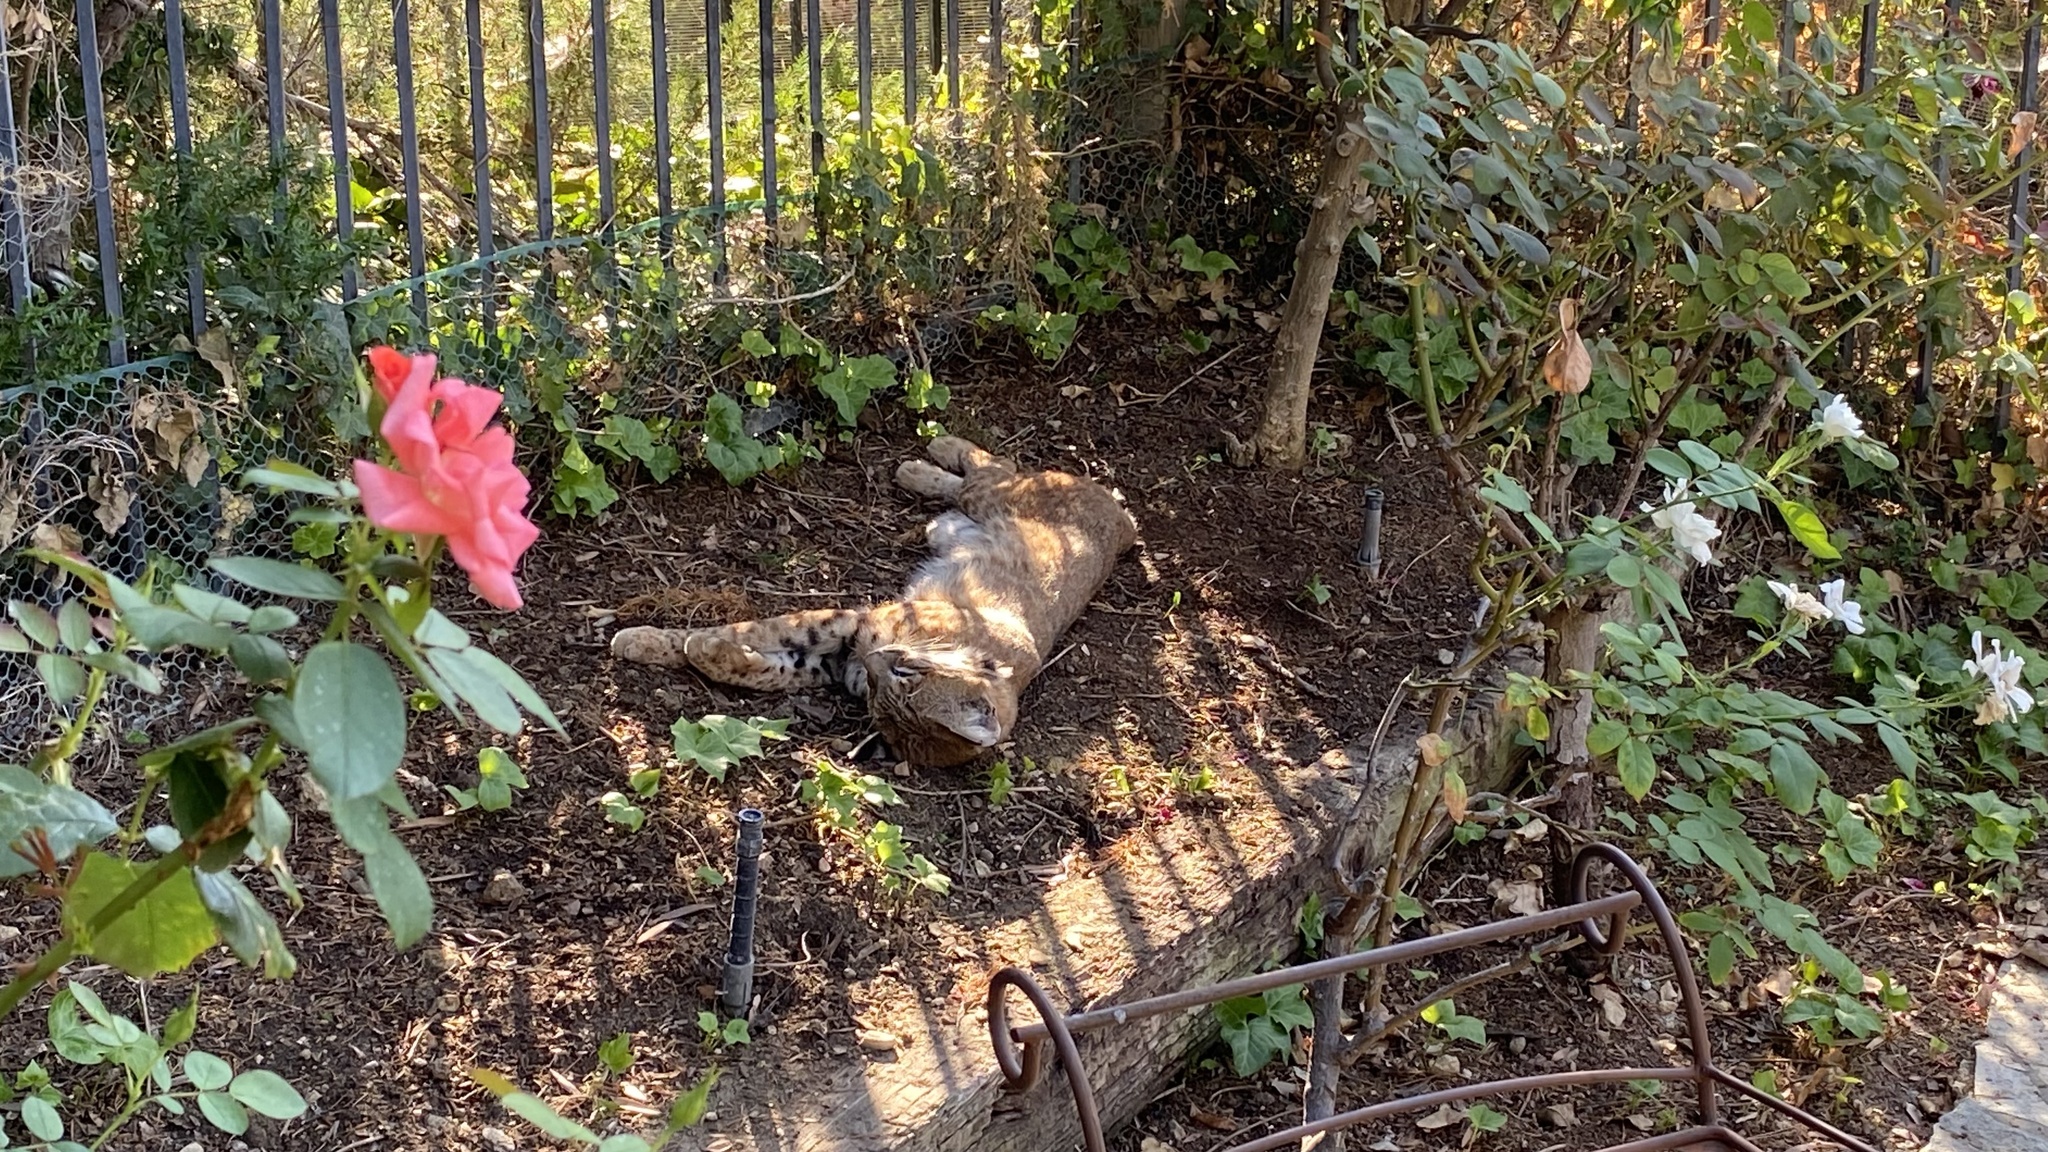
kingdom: Animalia
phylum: Chordata
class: Mammalia
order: Carnivora
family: Felidae
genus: Lynx
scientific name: Lynx rufus
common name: Bobcat
